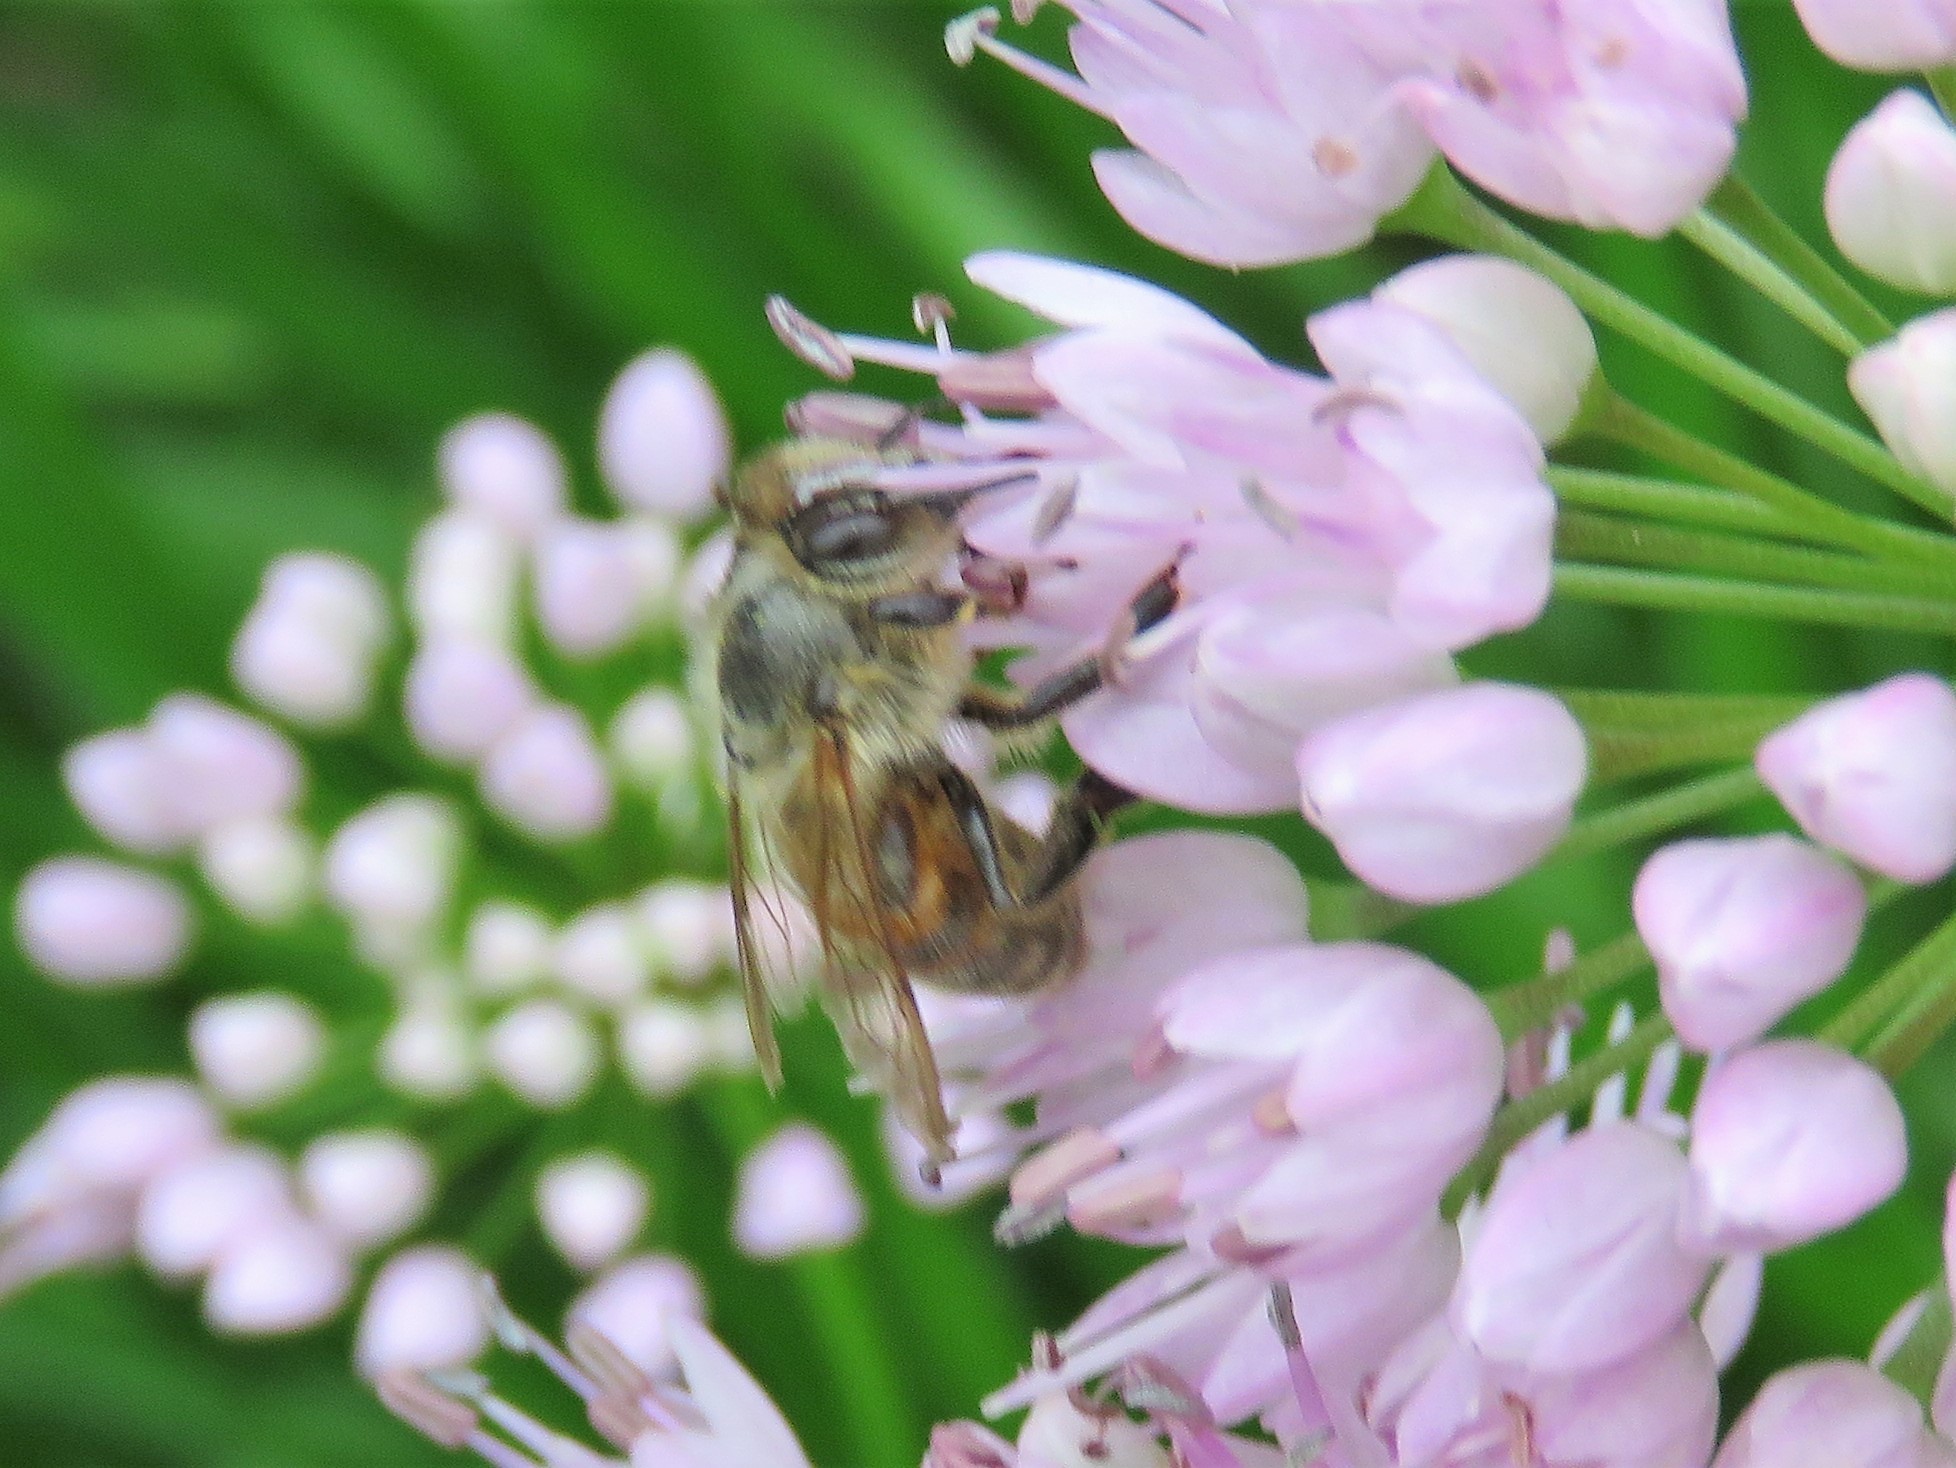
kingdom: Animalia
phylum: Arthropoda
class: Insecta
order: Hymenoptera
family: Apidae
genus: Apis
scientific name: Apis mellifera
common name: Honey bee
